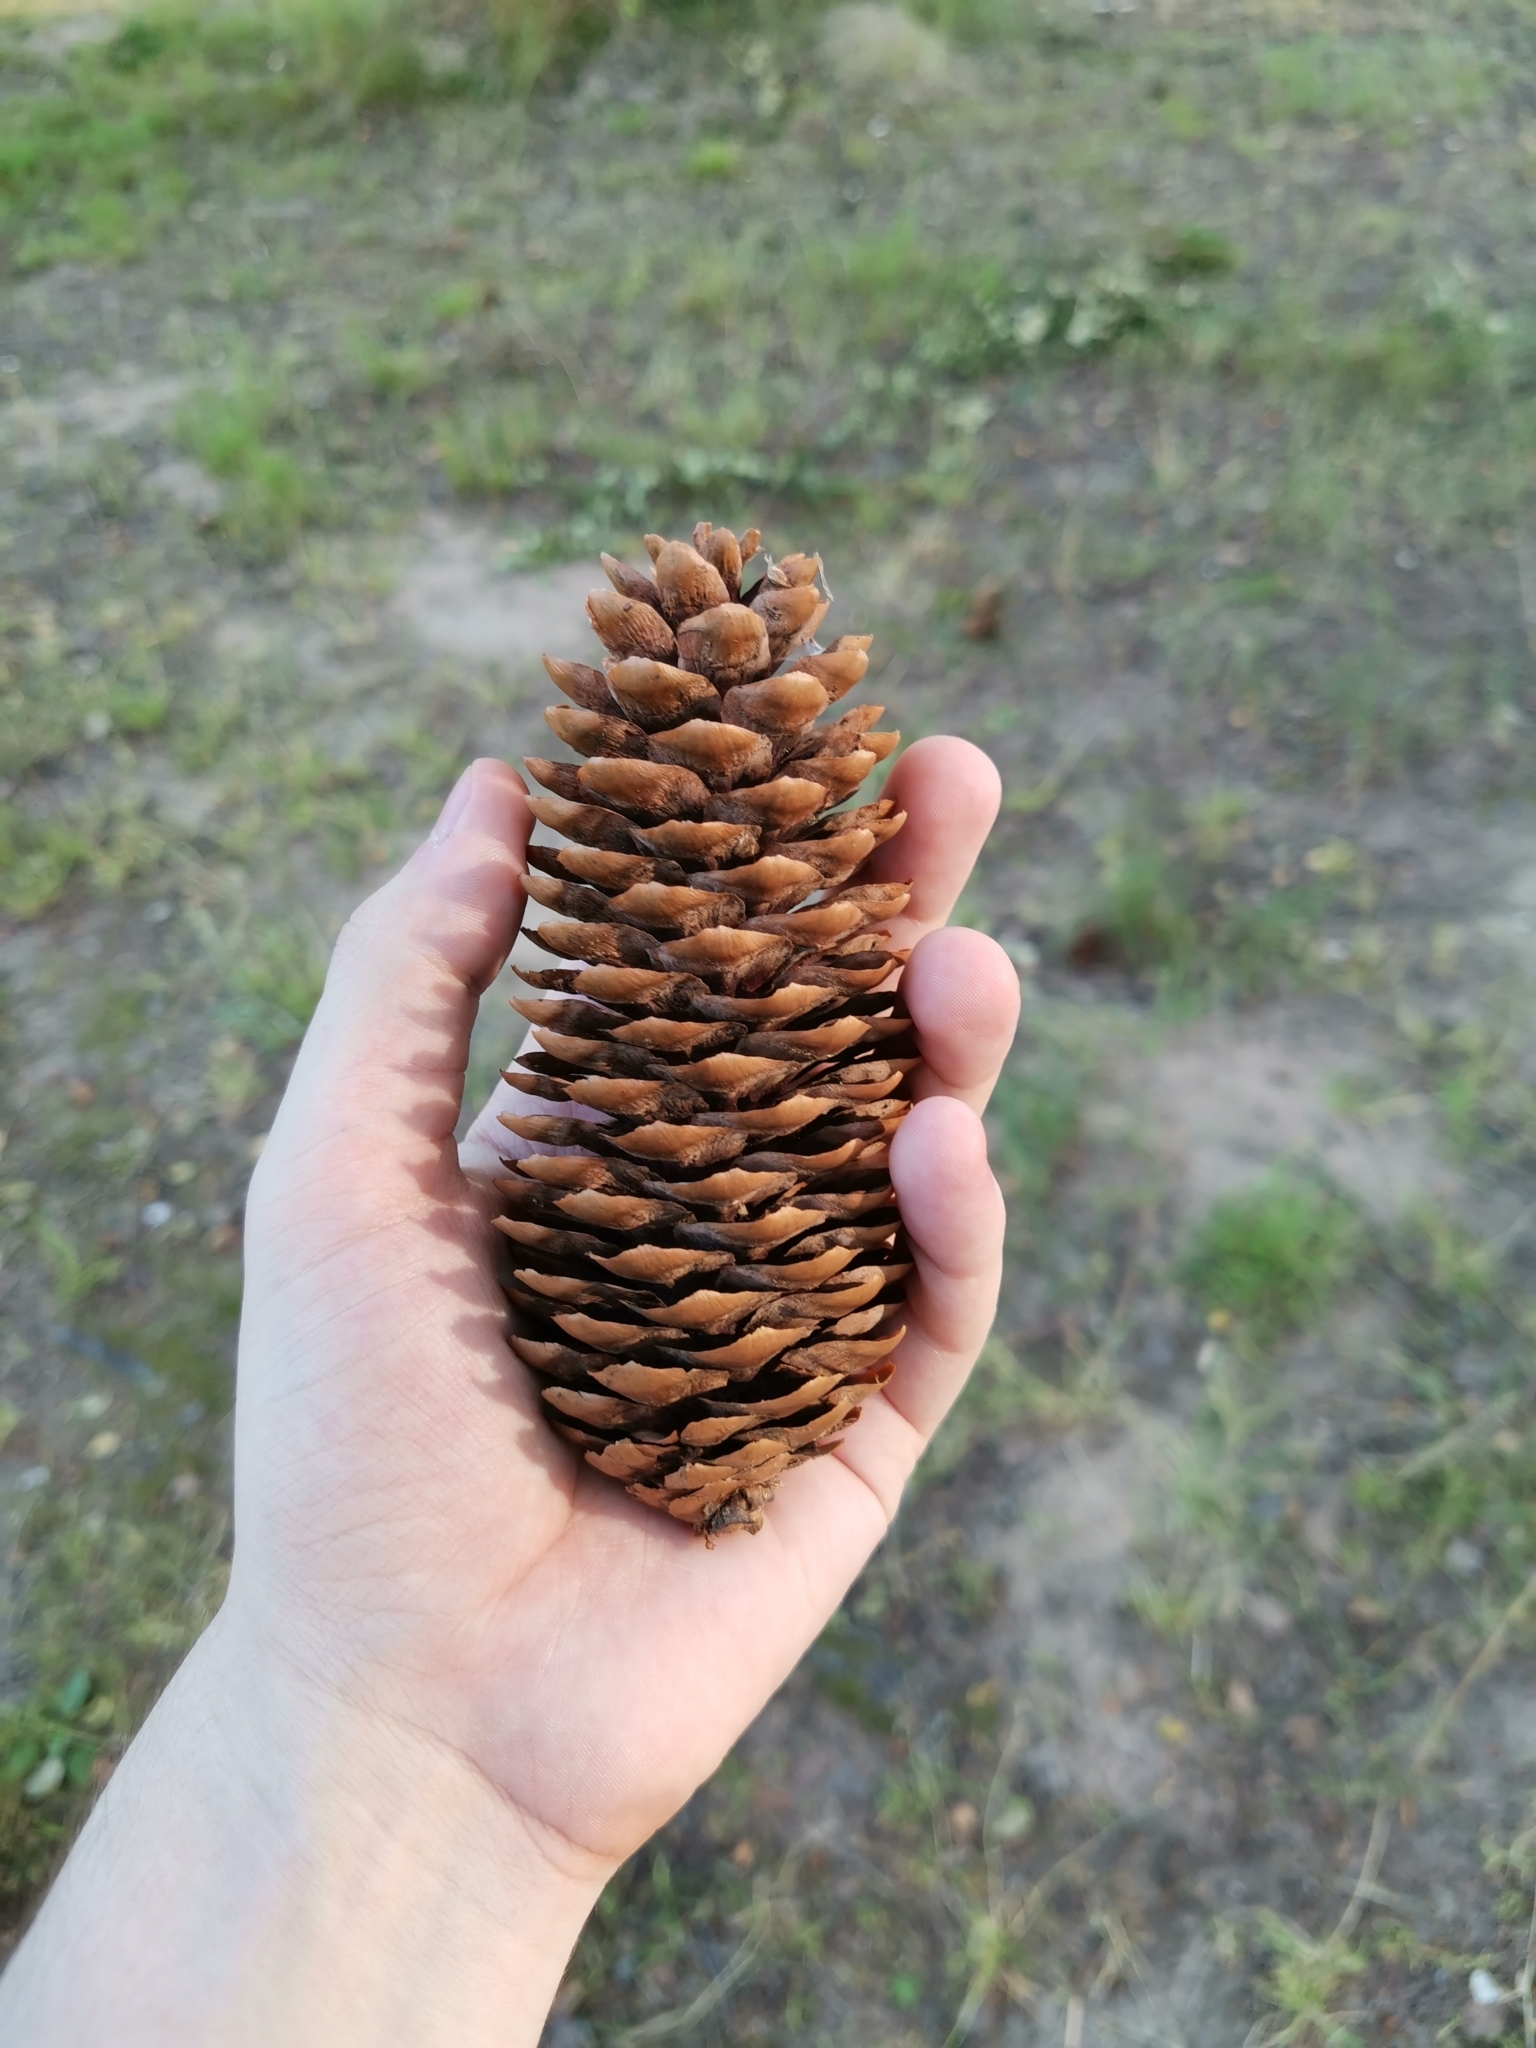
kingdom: Plantae
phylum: Tracheophyta
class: Pinopsida
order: Pinales
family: Pinaceae
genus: Picea
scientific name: Picea abies
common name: Norway spruce
